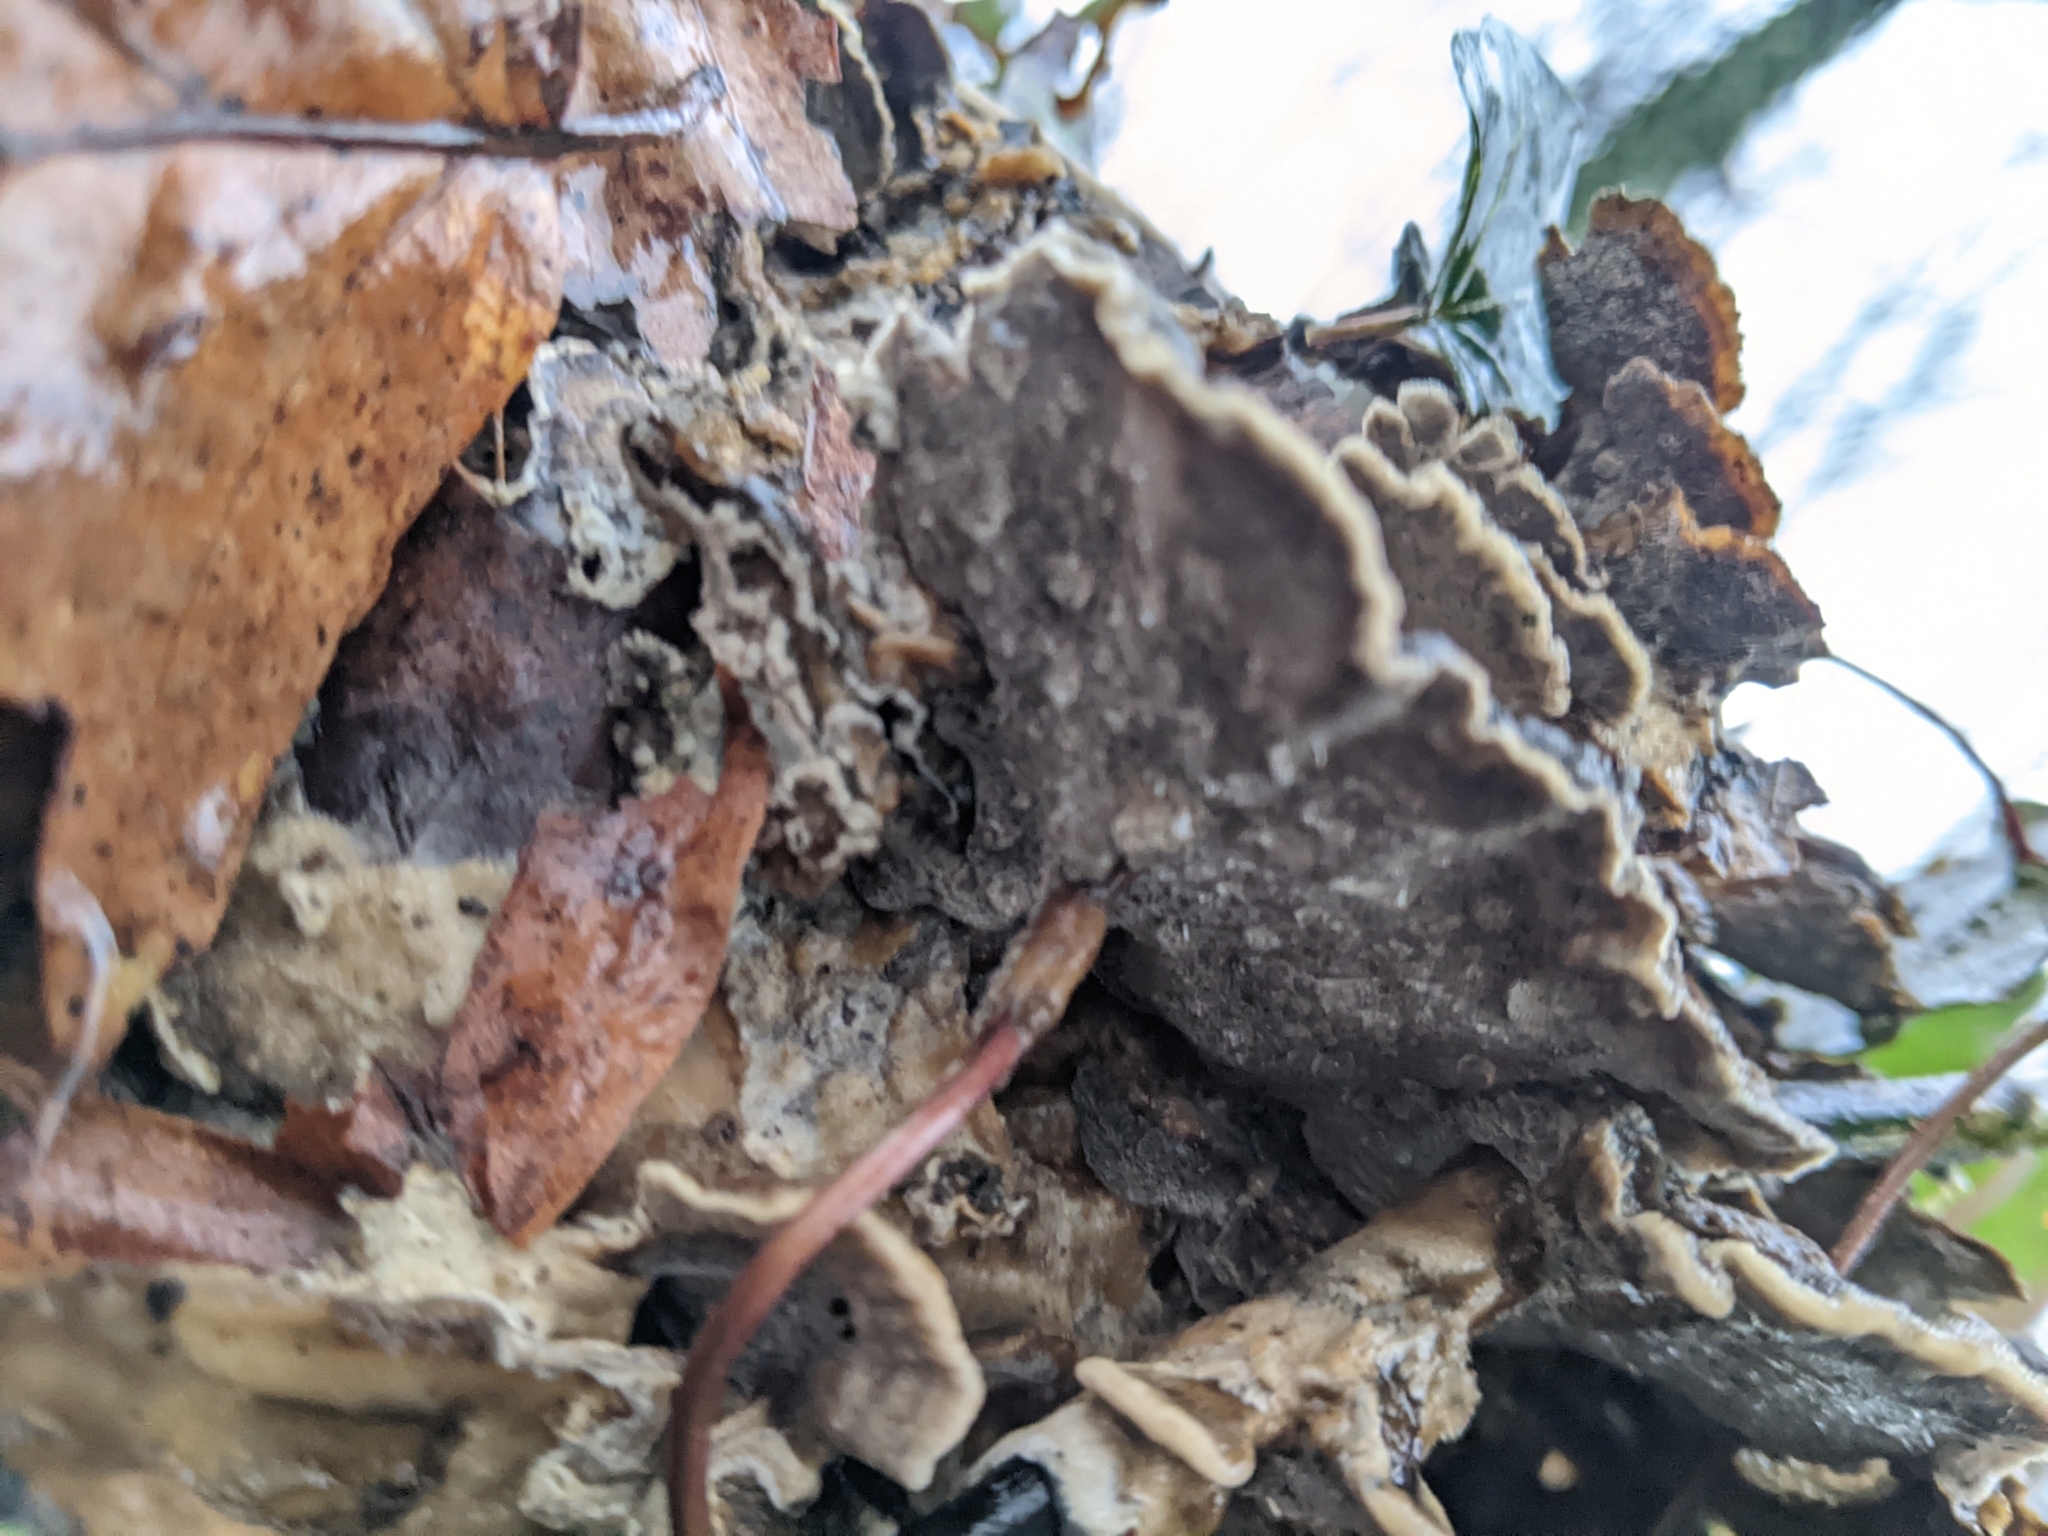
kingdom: Fungi
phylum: Basidiomycota
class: Agaricomycetes
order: Polyporales
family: Phanerochaetaceae
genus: Bjerkandera
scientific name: Bjerkandera adusta
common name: Smoky bracket
